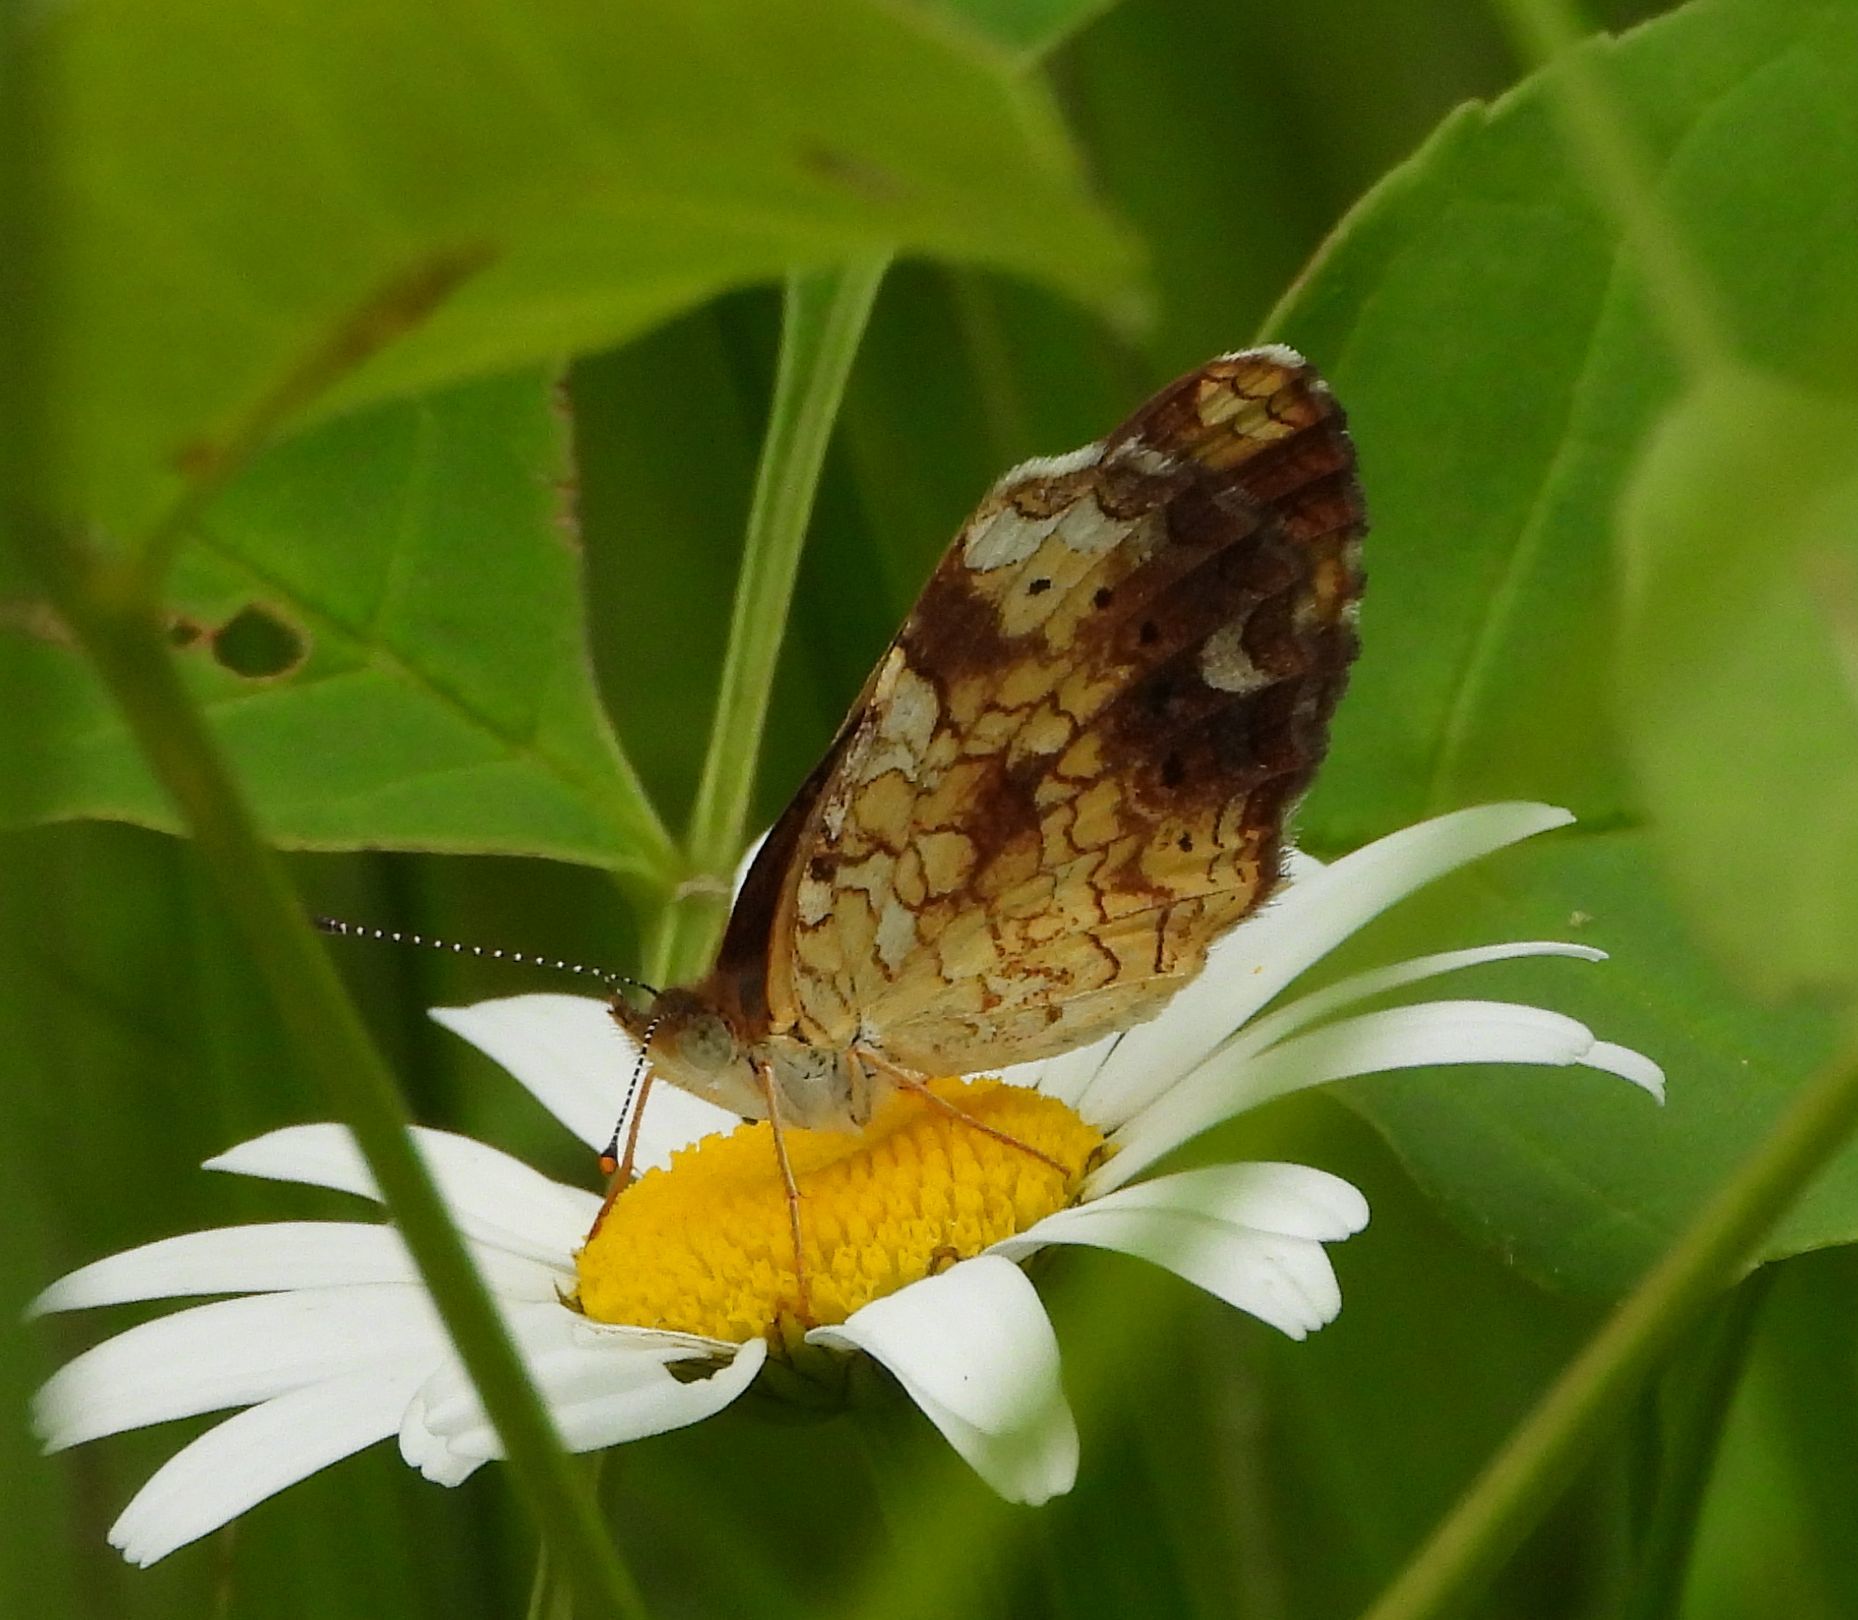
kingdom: Animalia
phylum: Arthropoda
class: Insecta
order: Lepidoptera
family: Nymphalidae
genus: Phyciodes
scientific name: Phyciodes tharos
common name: Pearl crescent
